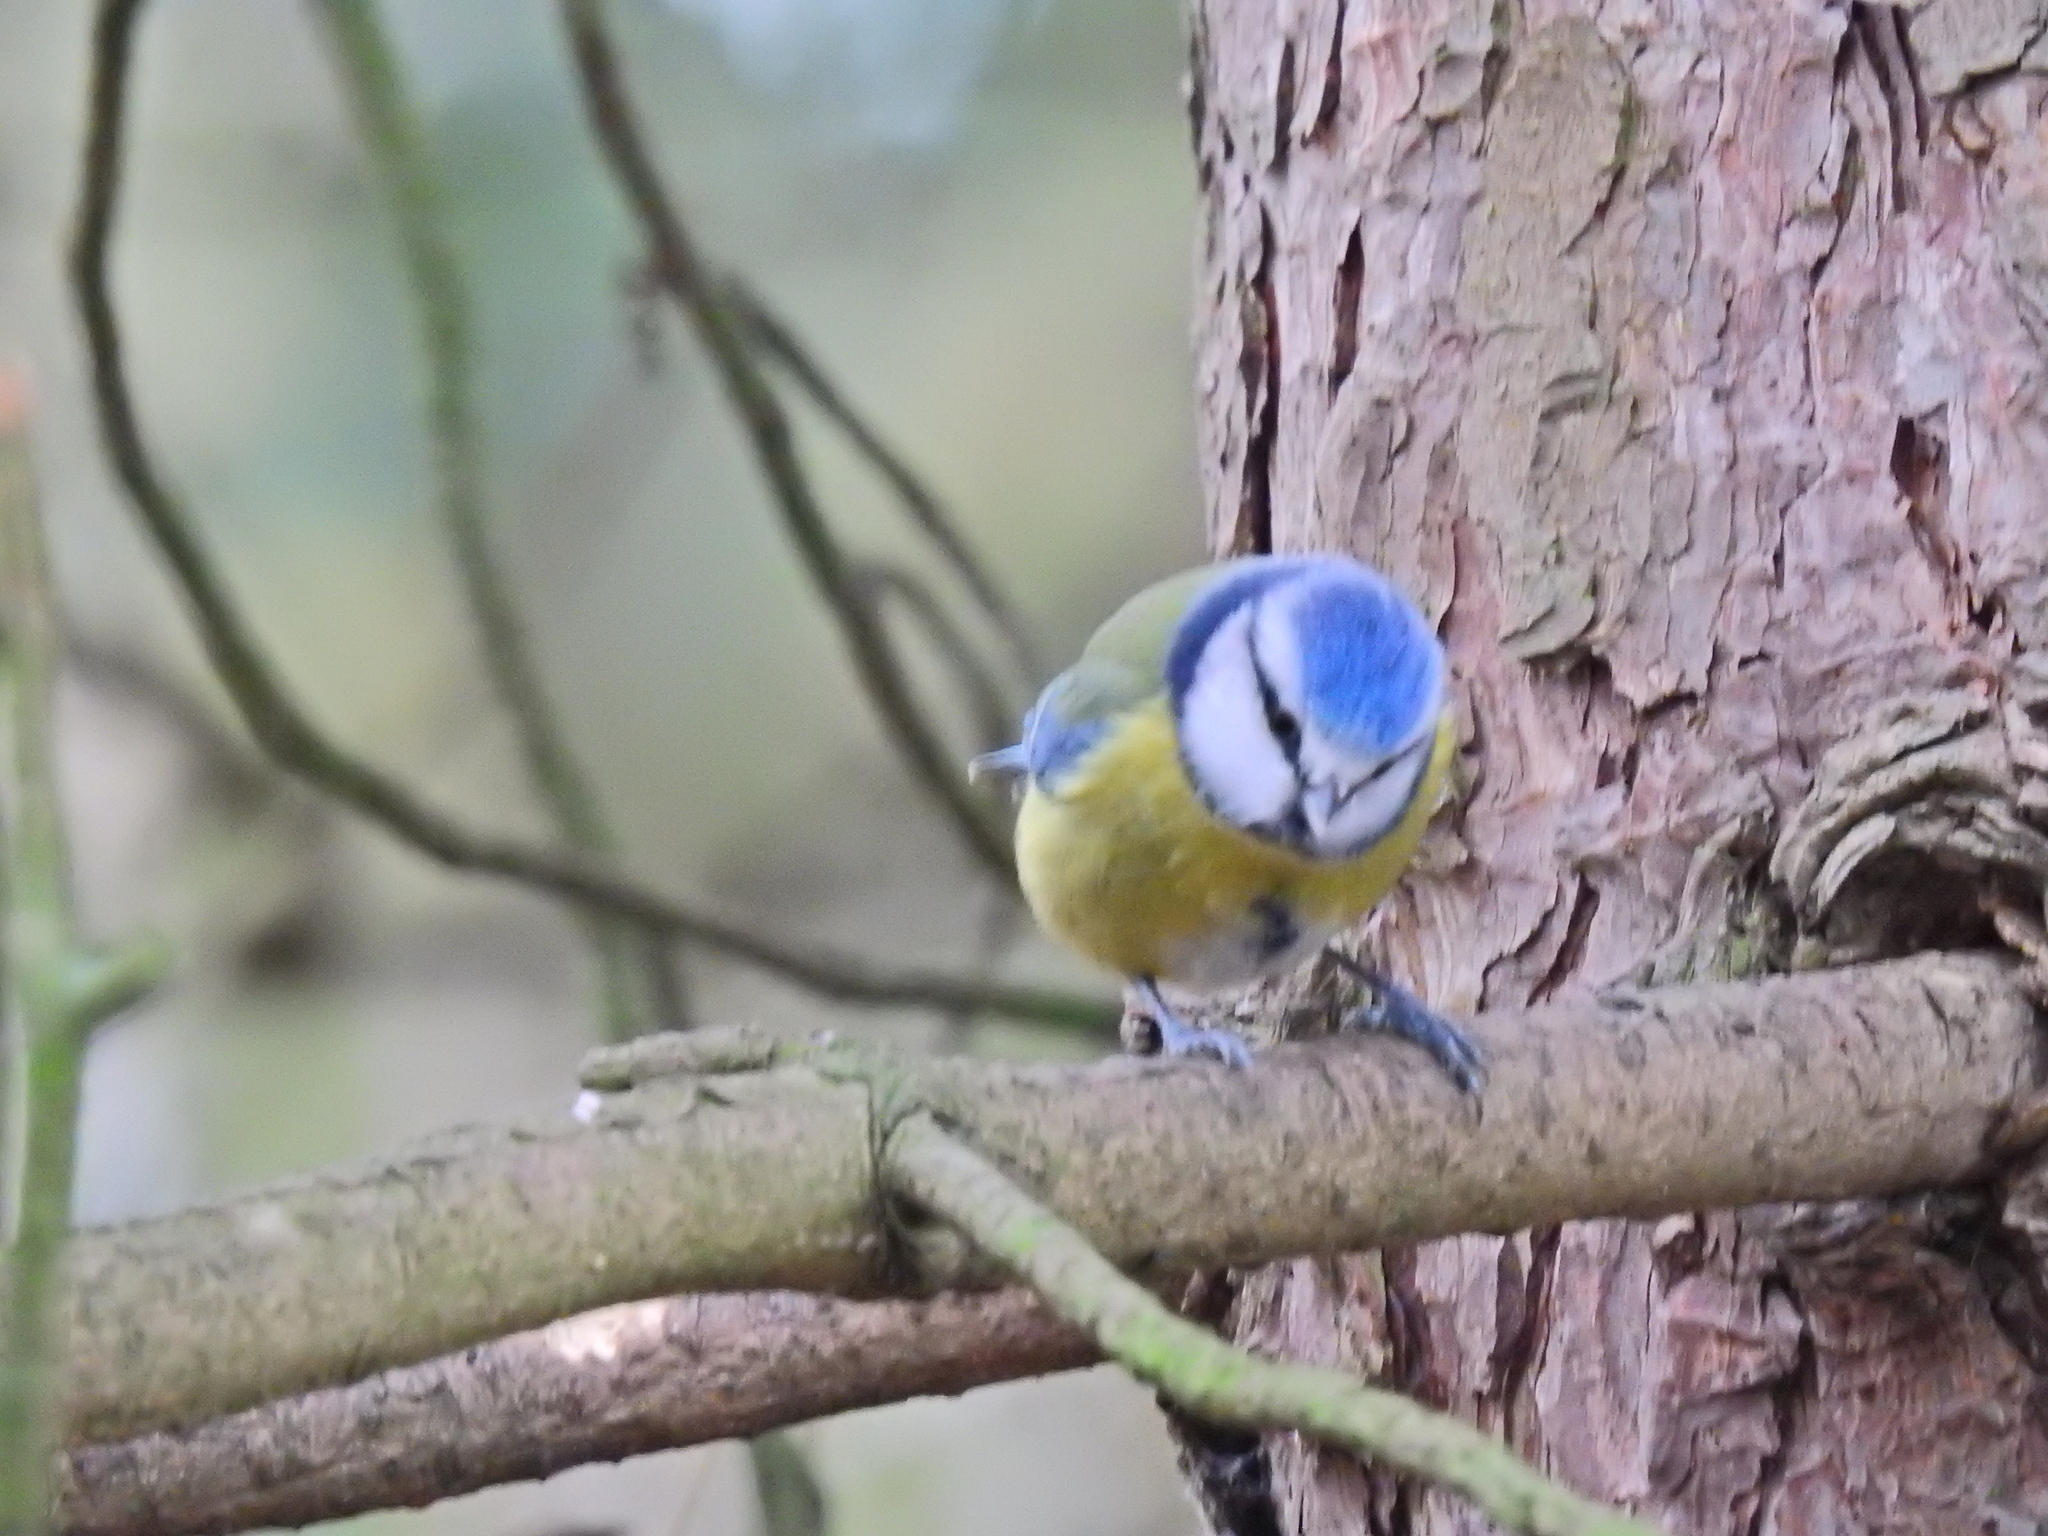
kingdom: Animalia
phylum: Chordata
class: Aves
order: Passeriformes
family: Paridae
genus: Cyanistes
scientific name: Cyanistes caeruleus
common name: Eurasian blue tit
